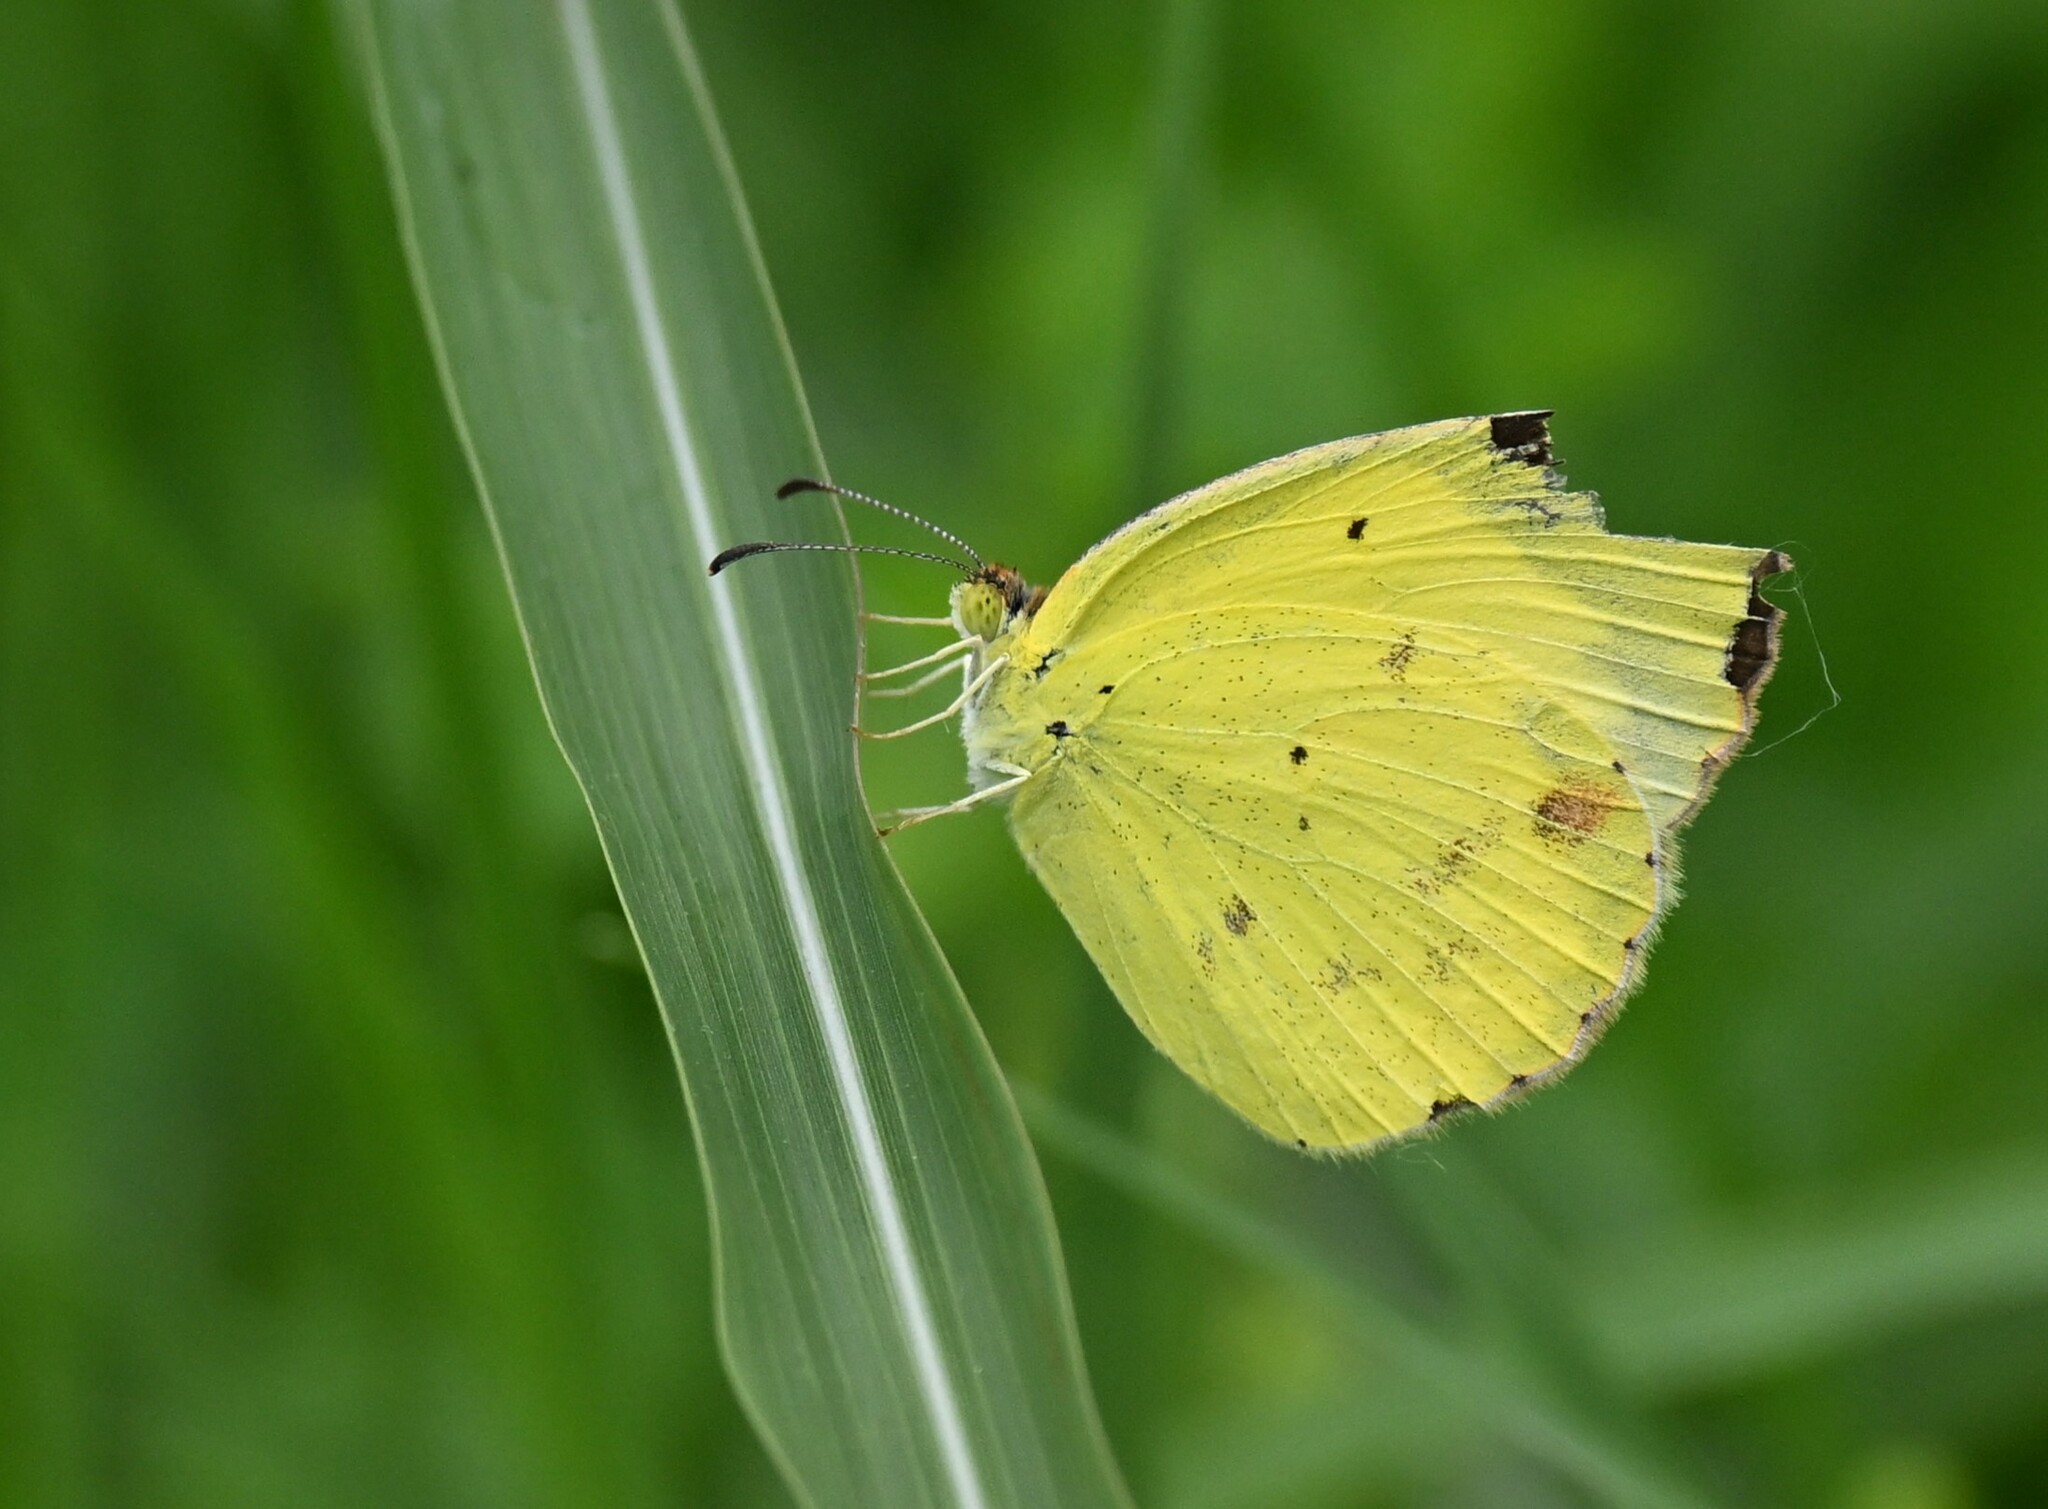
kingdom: Animalia
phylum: Arthropoda
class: Insecta
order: Lepidoptera
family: Pieridae
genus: Pyrisitia
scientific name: Pyrisitia lisa
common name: Little yellow
